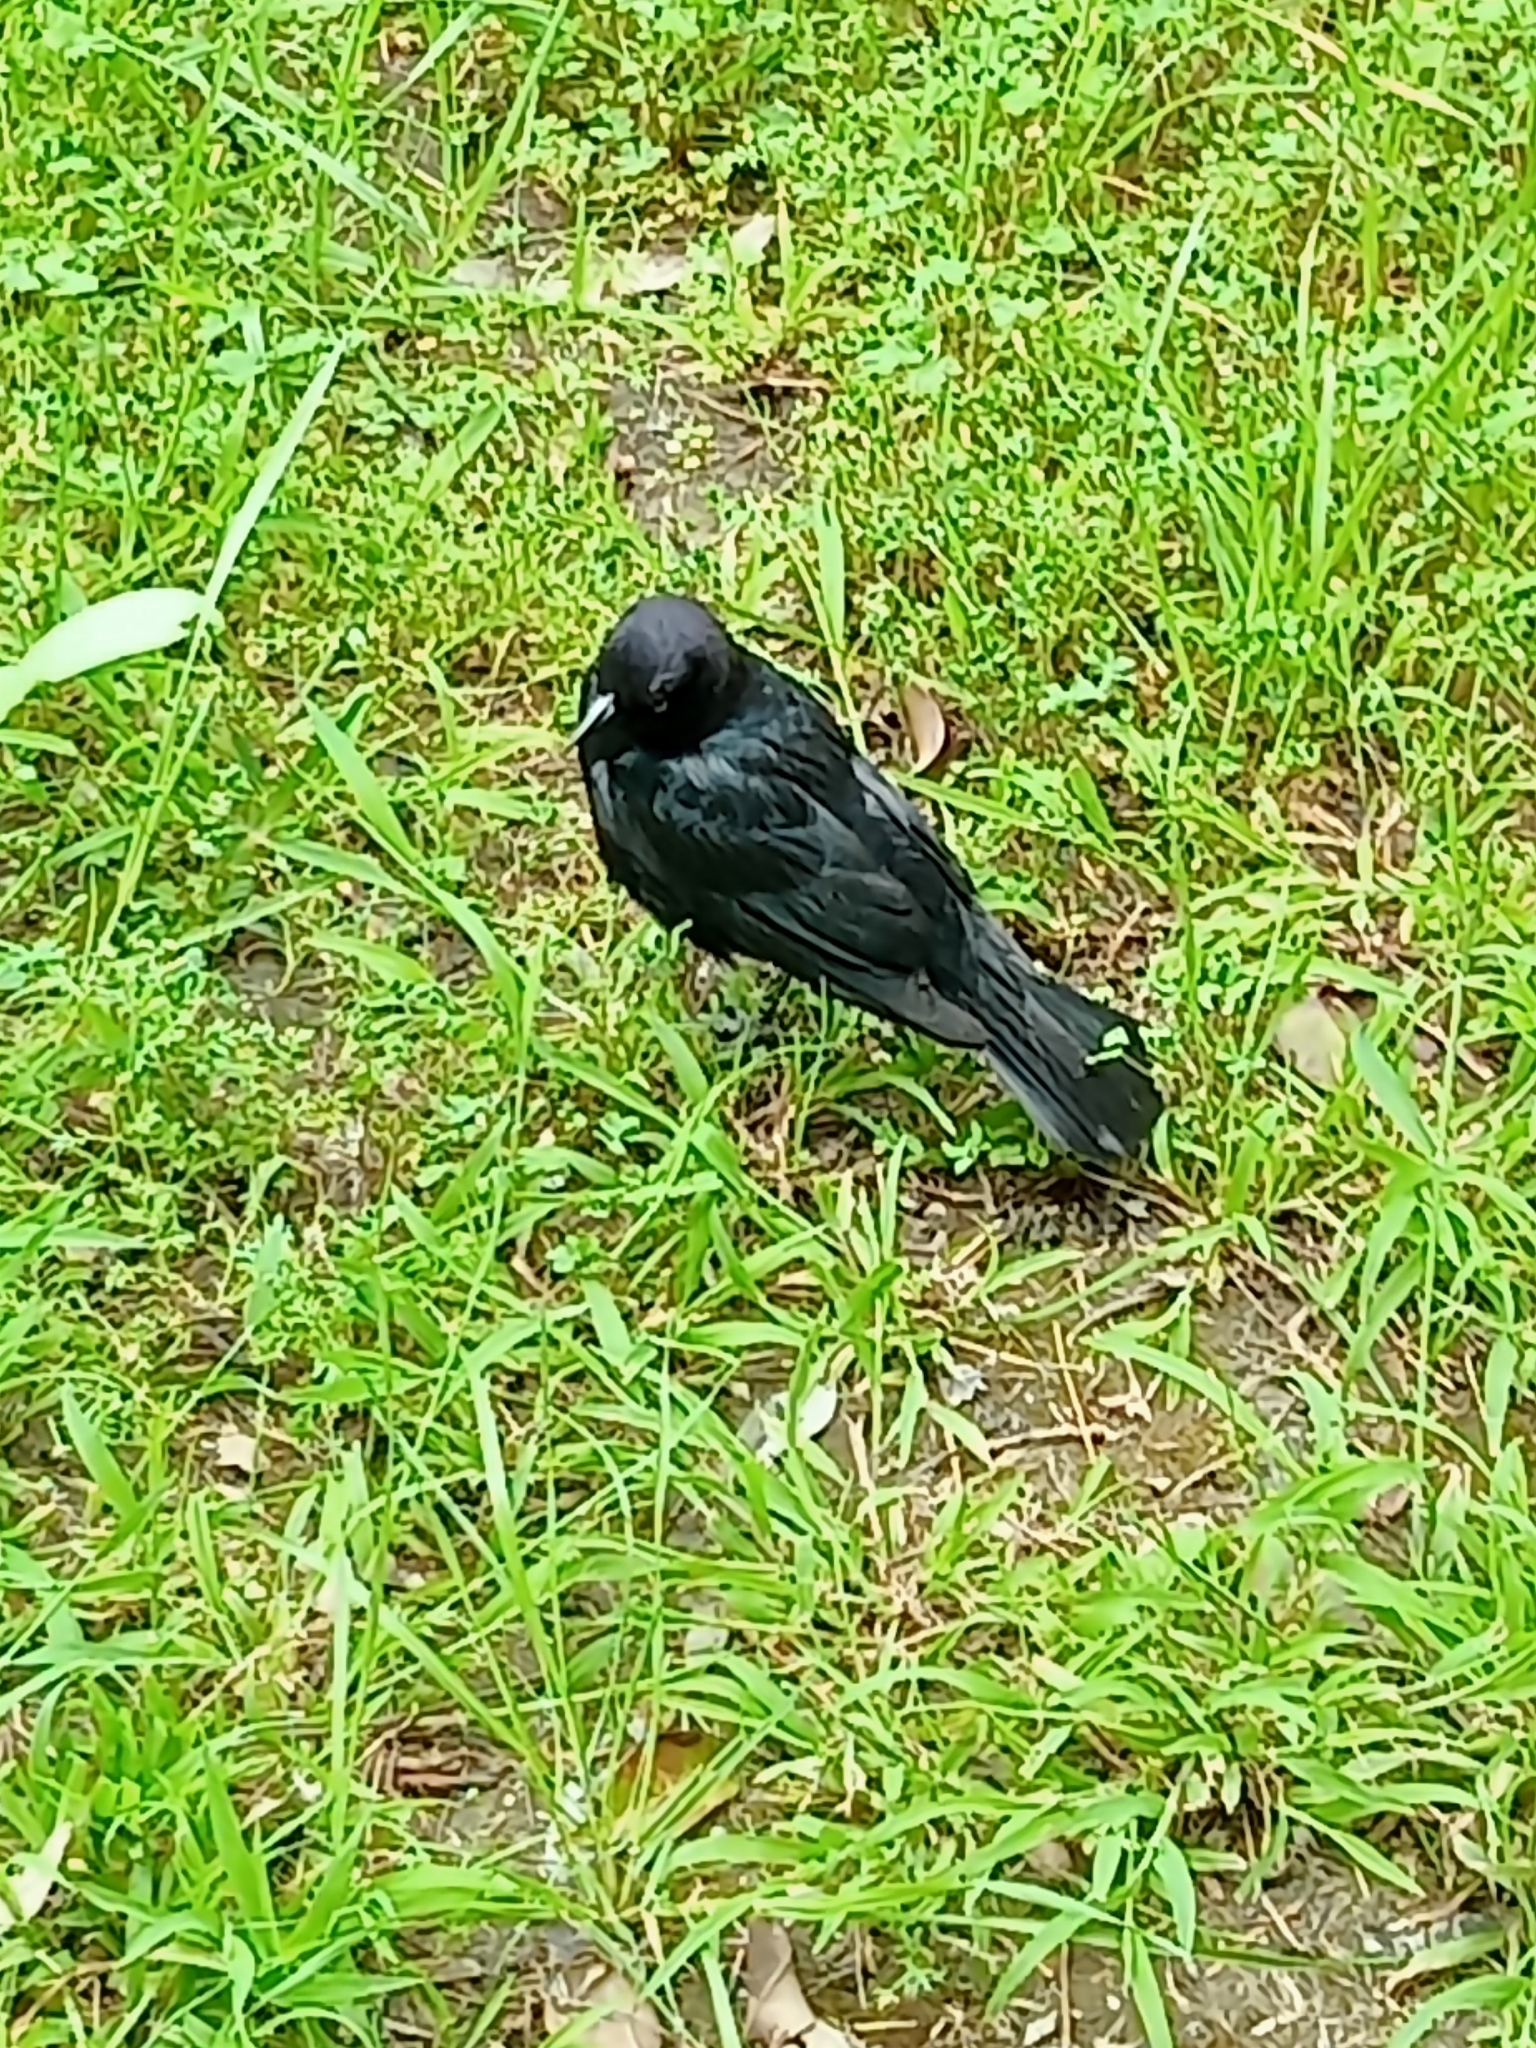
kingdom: Animalia
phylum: Chordata
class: Aves
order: Passeriformes
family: Icteridae
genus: Euphagus
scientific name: Euphagus cyanocephalus
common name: Brewer's blackbird
